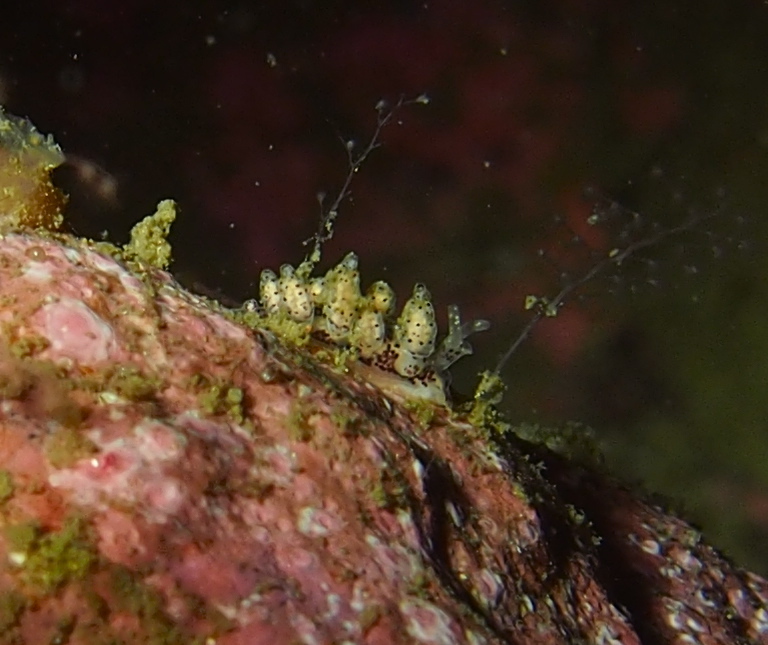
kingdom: Animalia
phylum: Mollusca
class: Gastropoda
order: Nudibranchia
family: Dotidae
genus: Doto
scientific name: Doto dunnei
